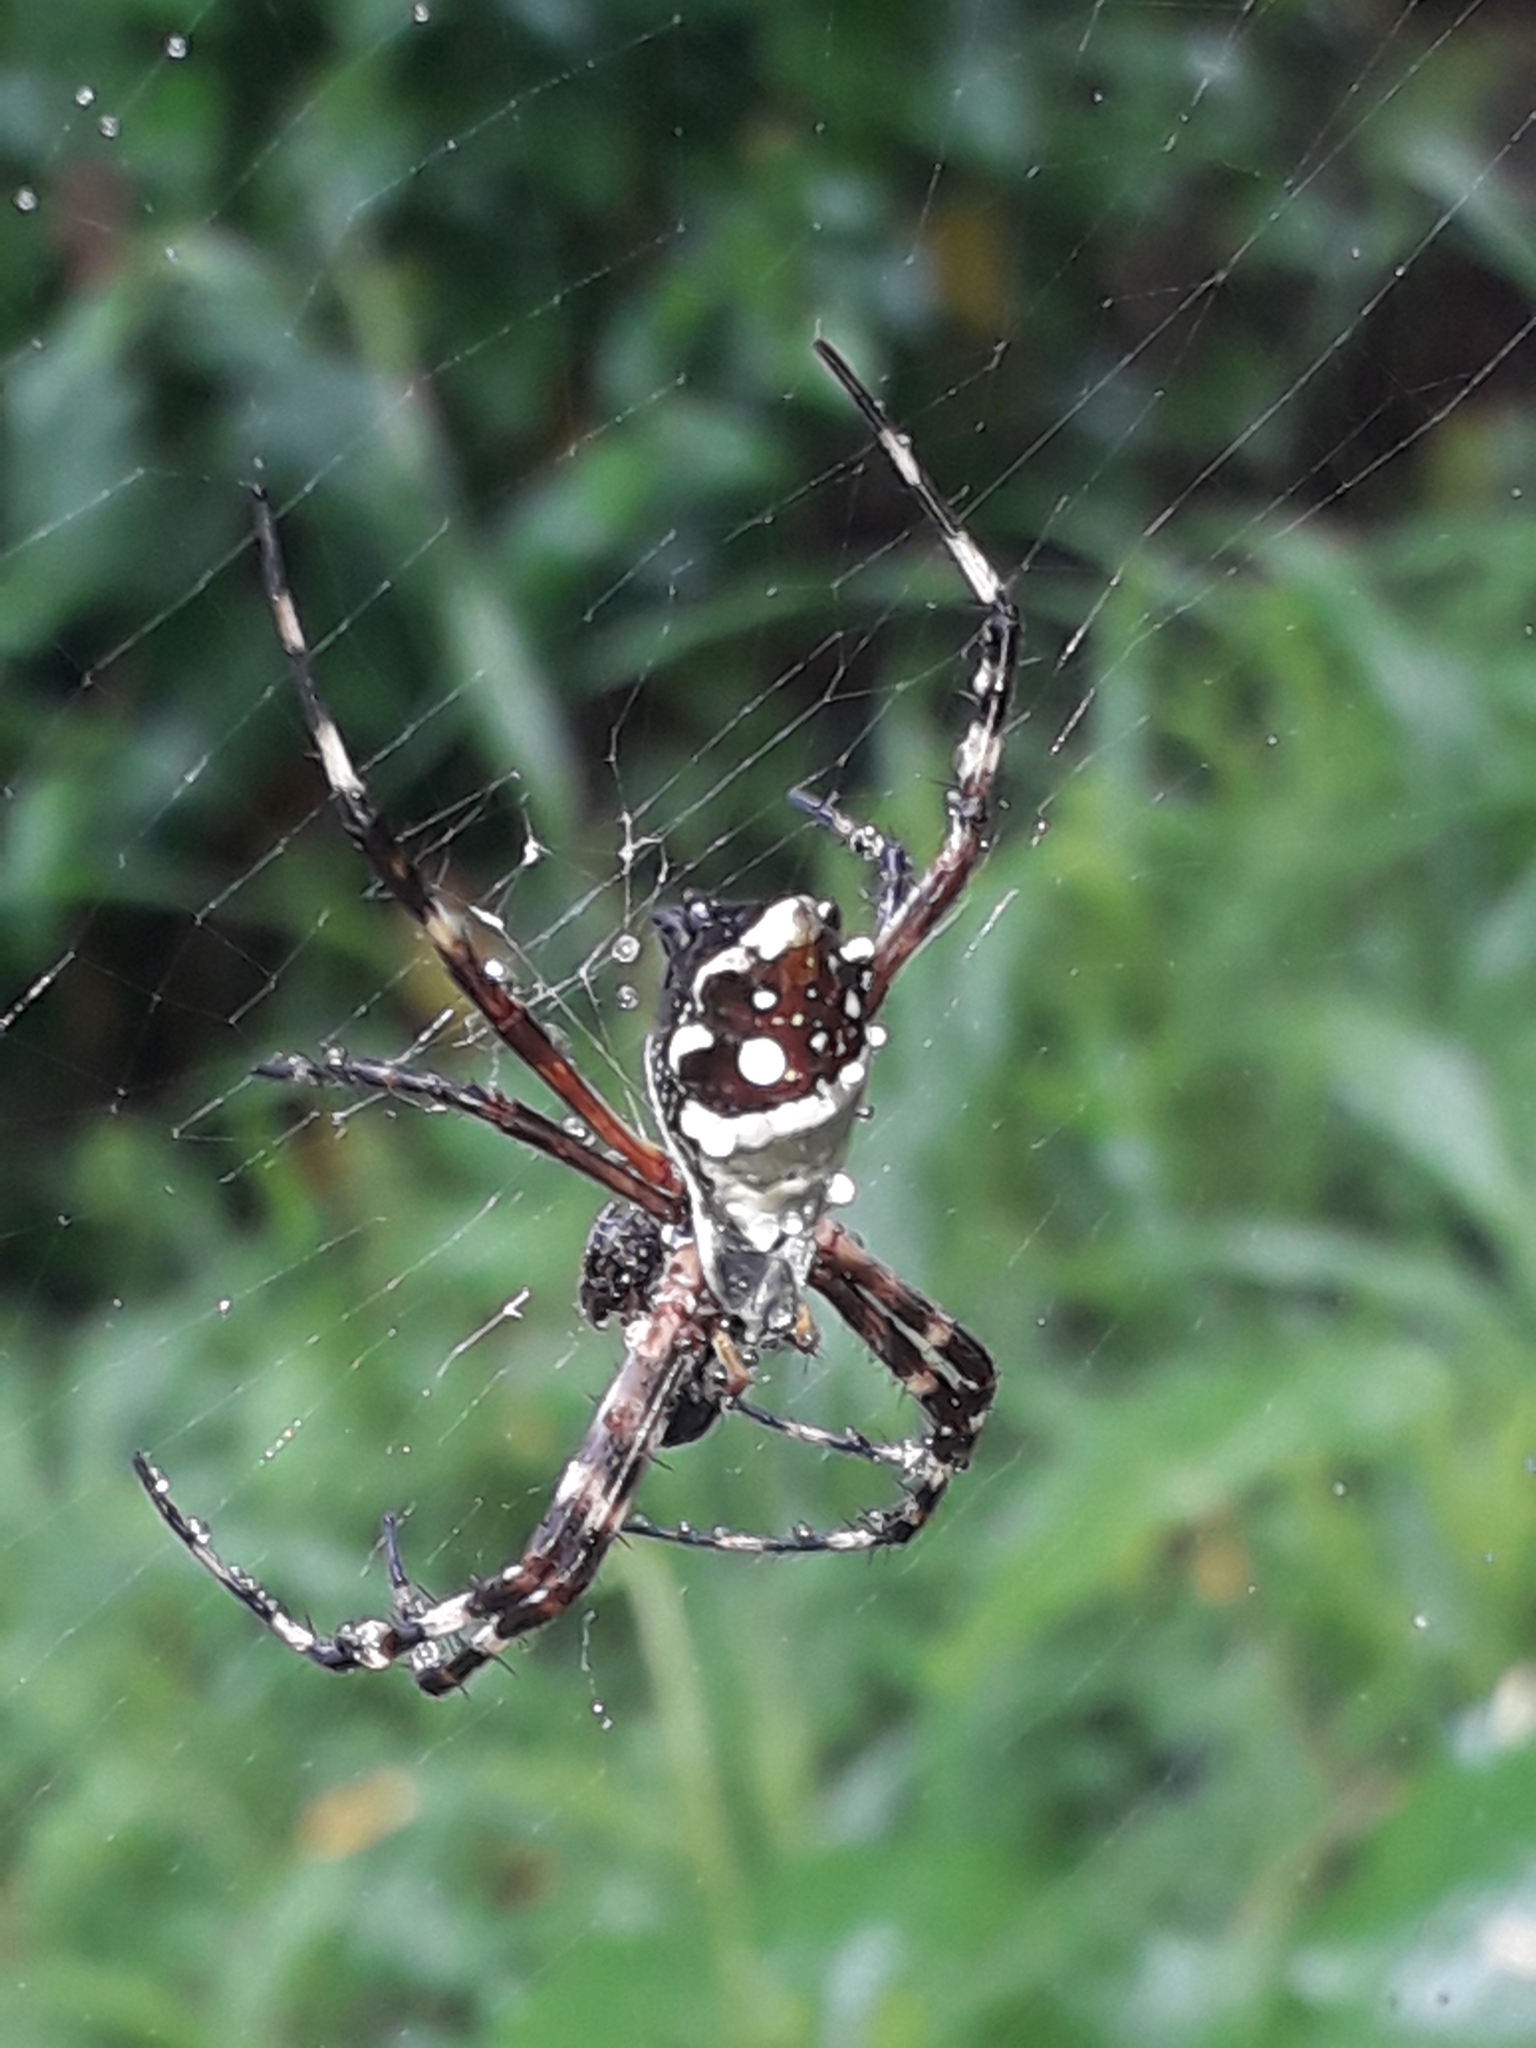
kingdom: Animalia
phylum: Arthropoda
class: Arachnida
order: Araneae
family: Araneidae
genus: Argiope
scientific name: Argiope argentata
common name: Orb weavers
